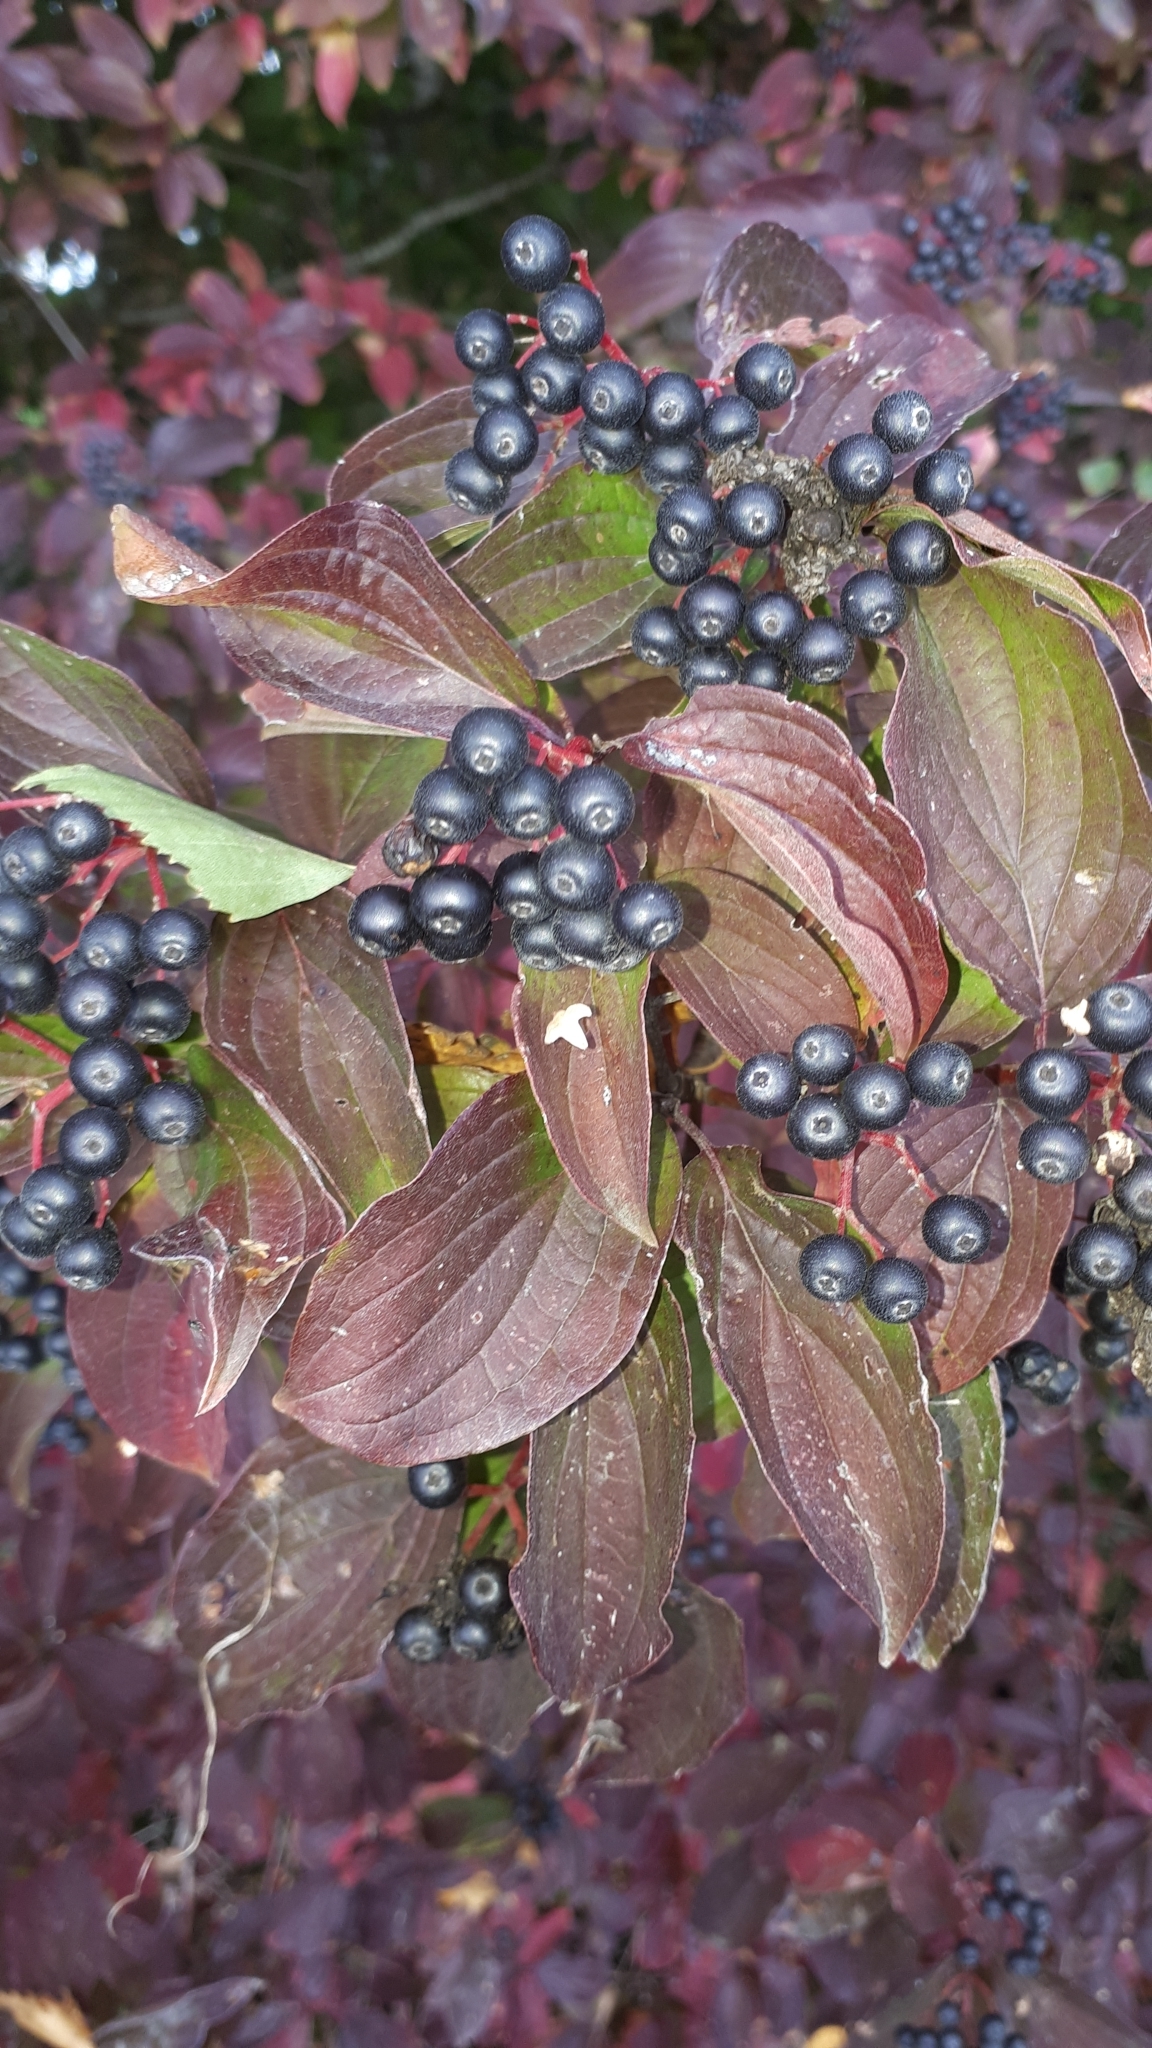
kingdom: Plantae
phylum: Tracheophyta
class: Magnoliopsida
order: Cornales
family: Cornaceae
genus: Cornus
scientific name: Cornus sanguinea
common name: Dogwood
